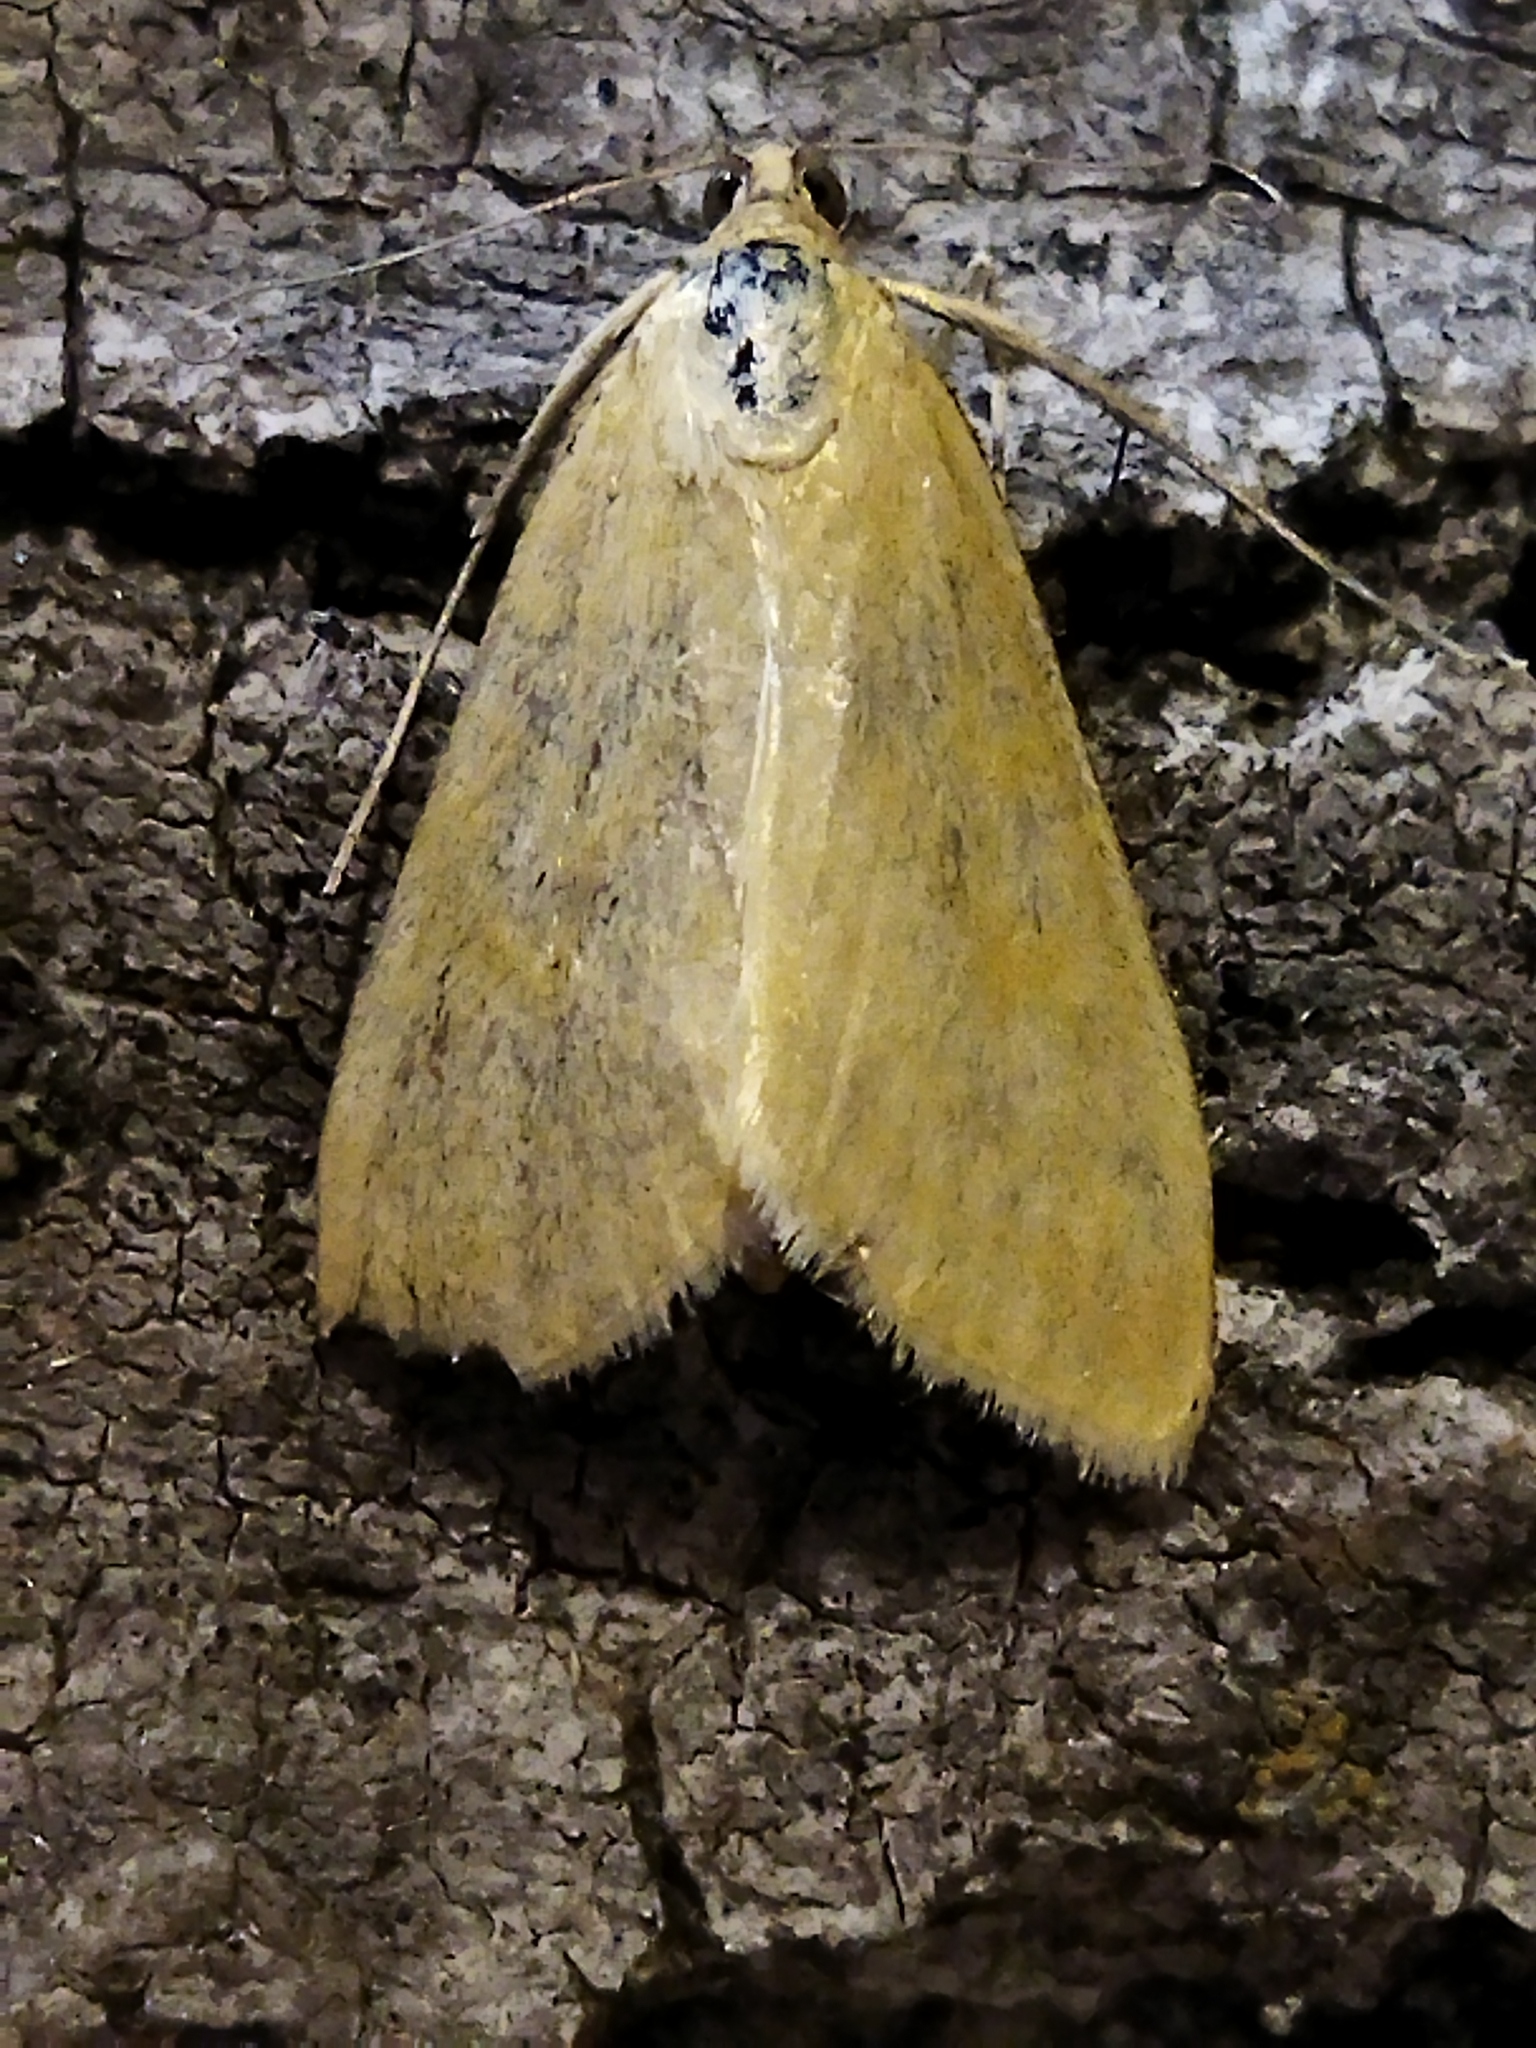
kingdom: Animalia
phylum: Arthropoda
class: Insecta
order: Lepidoptera
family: Crambidae
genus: Sitochroa
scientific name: Sitochroa verticalis
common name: Lesser pearl
